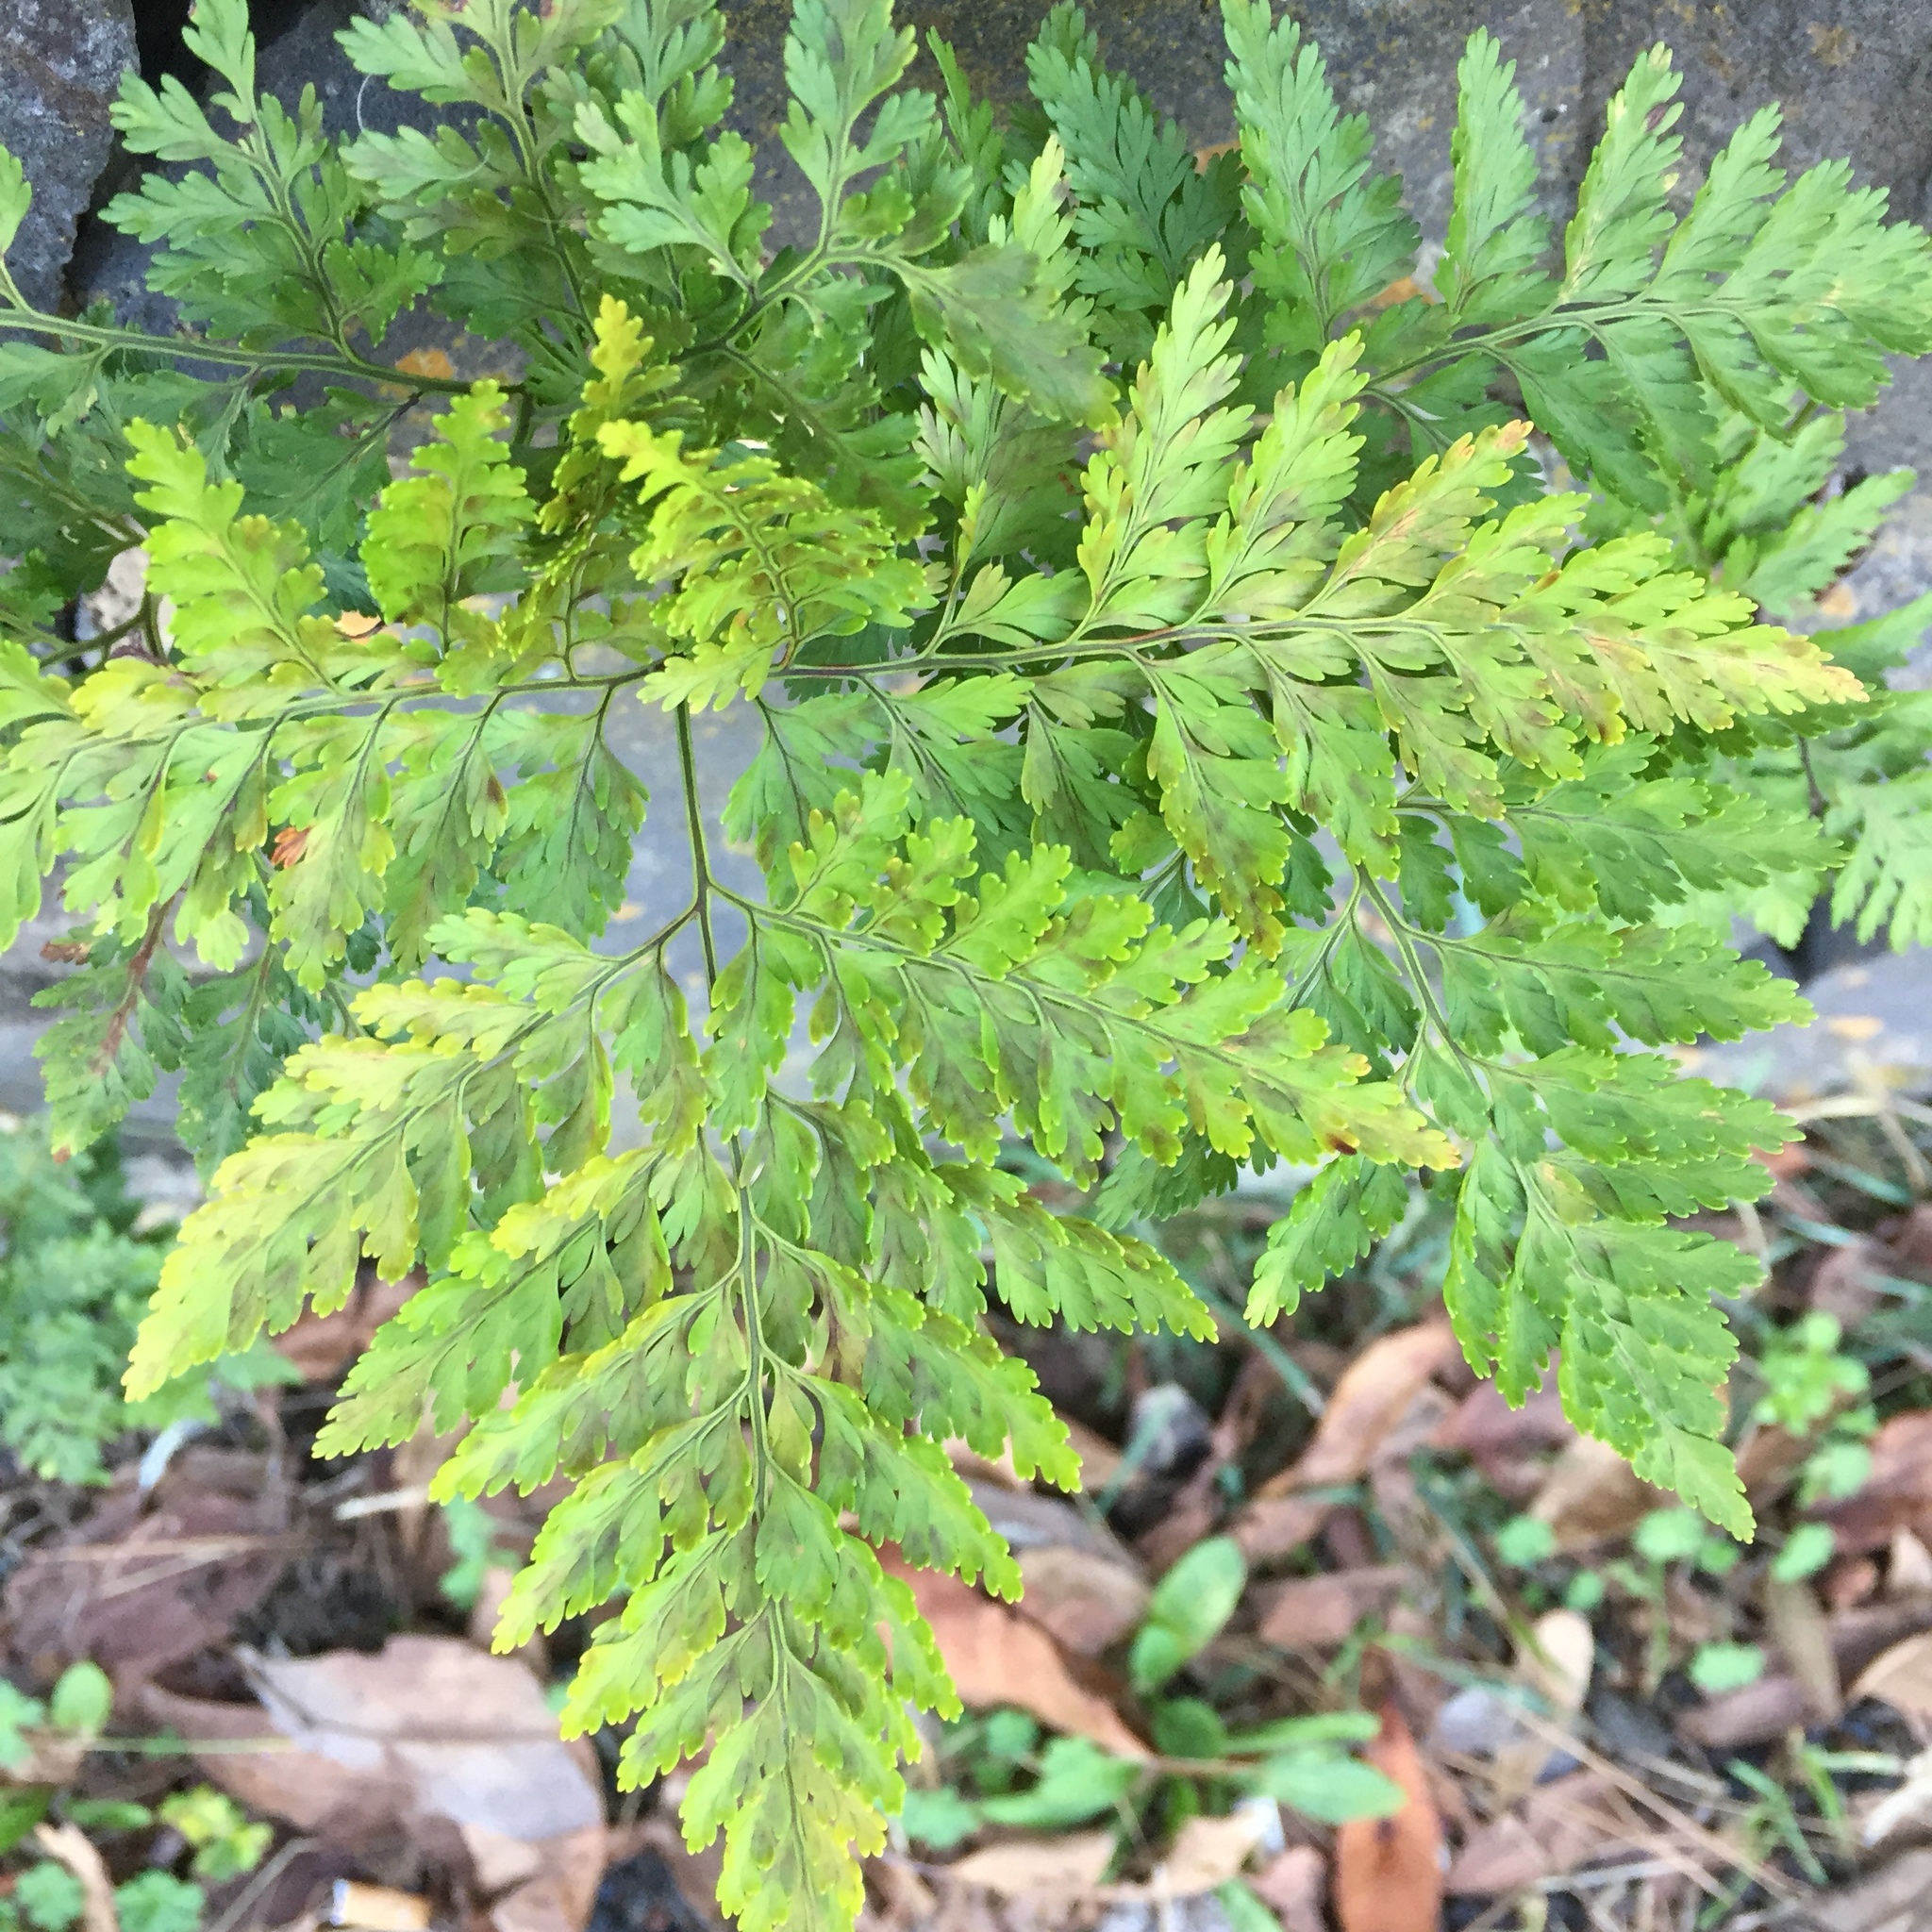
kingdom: Plantae
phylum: Tracheophyta
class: Polypodiopsida
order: Polypodiales
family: Davalliaceae
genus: Davallia
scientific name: Davallia canariensis
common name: Hare's-foot fern
